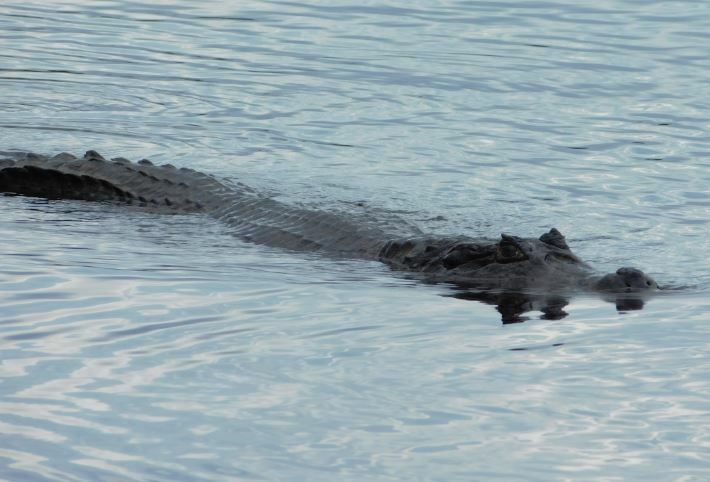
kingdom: Animalia
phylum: Chordata
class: Crocodylia
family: Alligatoridae
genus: Caiman
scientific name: Caiman yacare
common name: Yacare caiman
